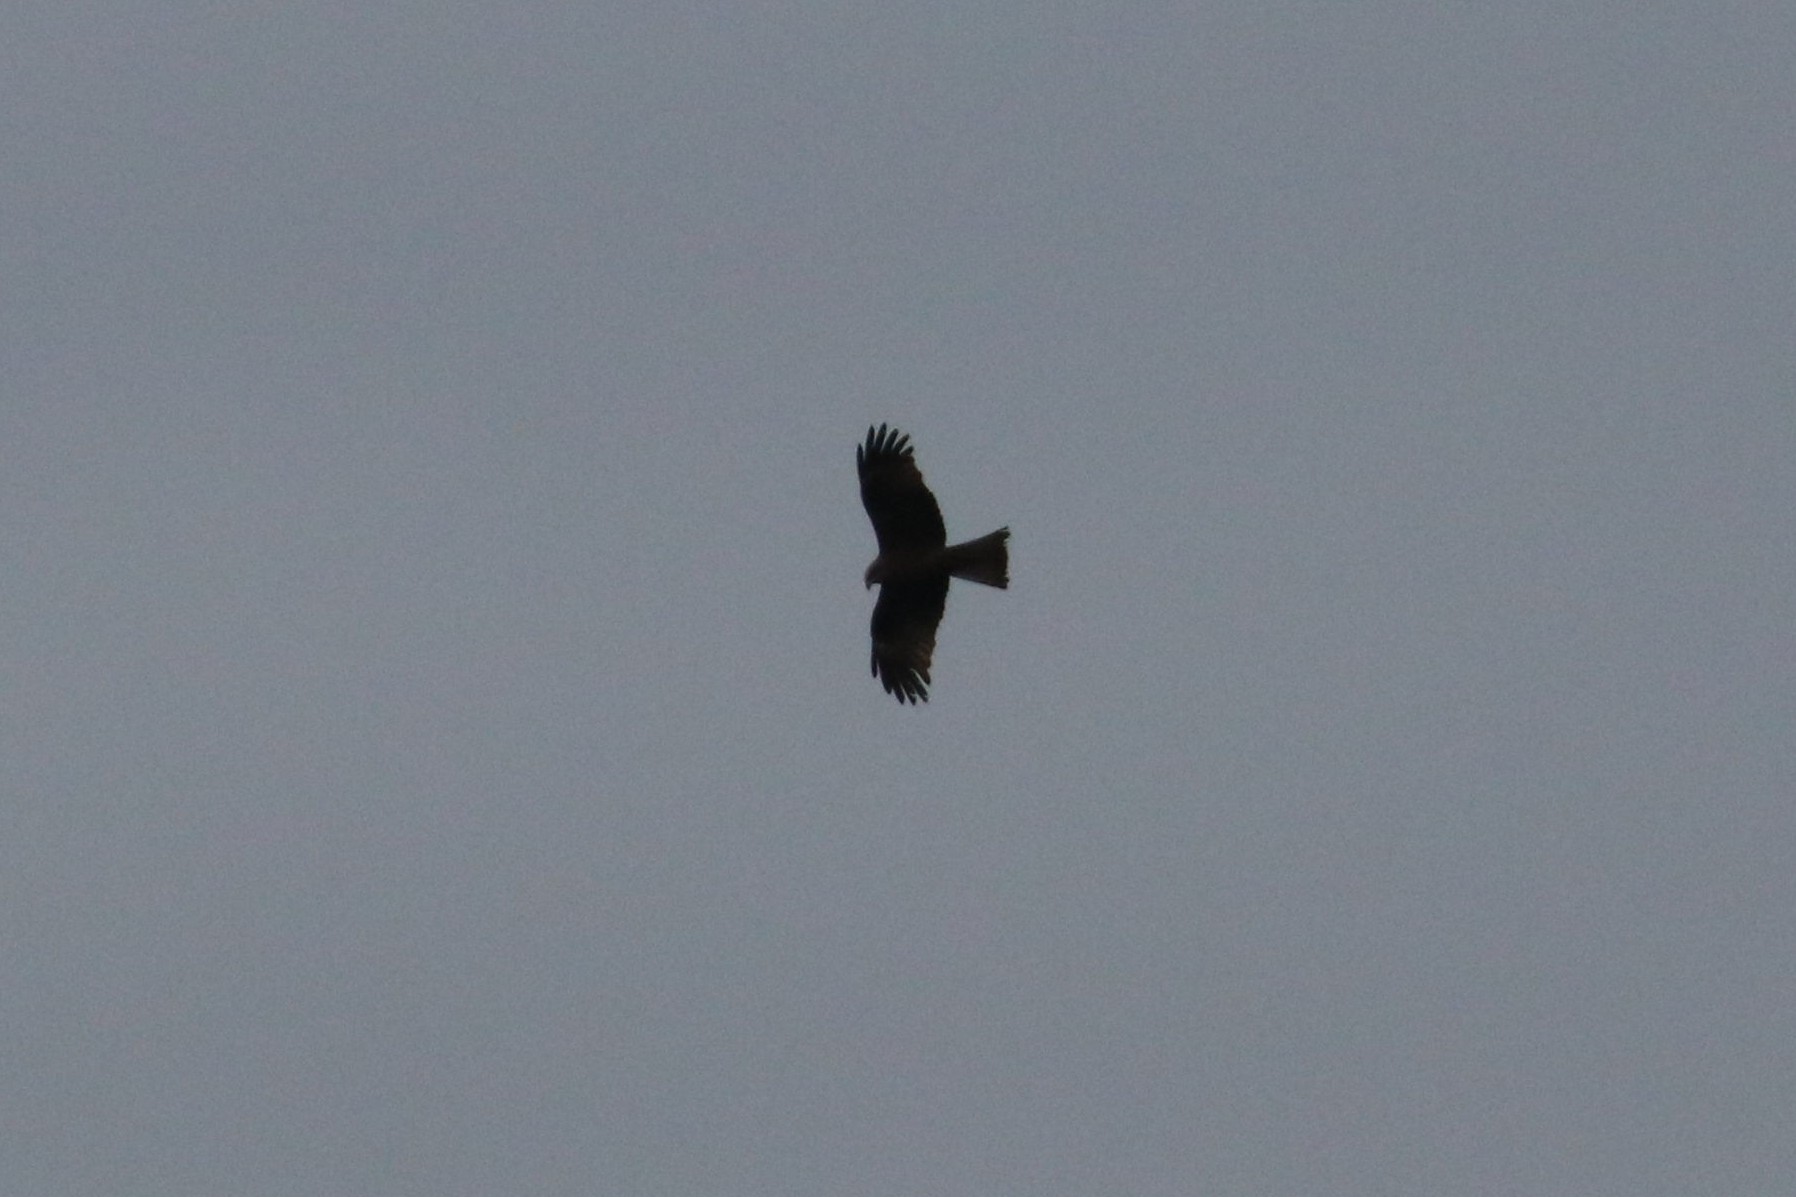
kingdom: Animalia
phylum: Chordata
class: Aves
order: Accipitriformes
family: Accipitridae
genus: Milvus
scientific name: Milvus migrans
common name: Black kite
